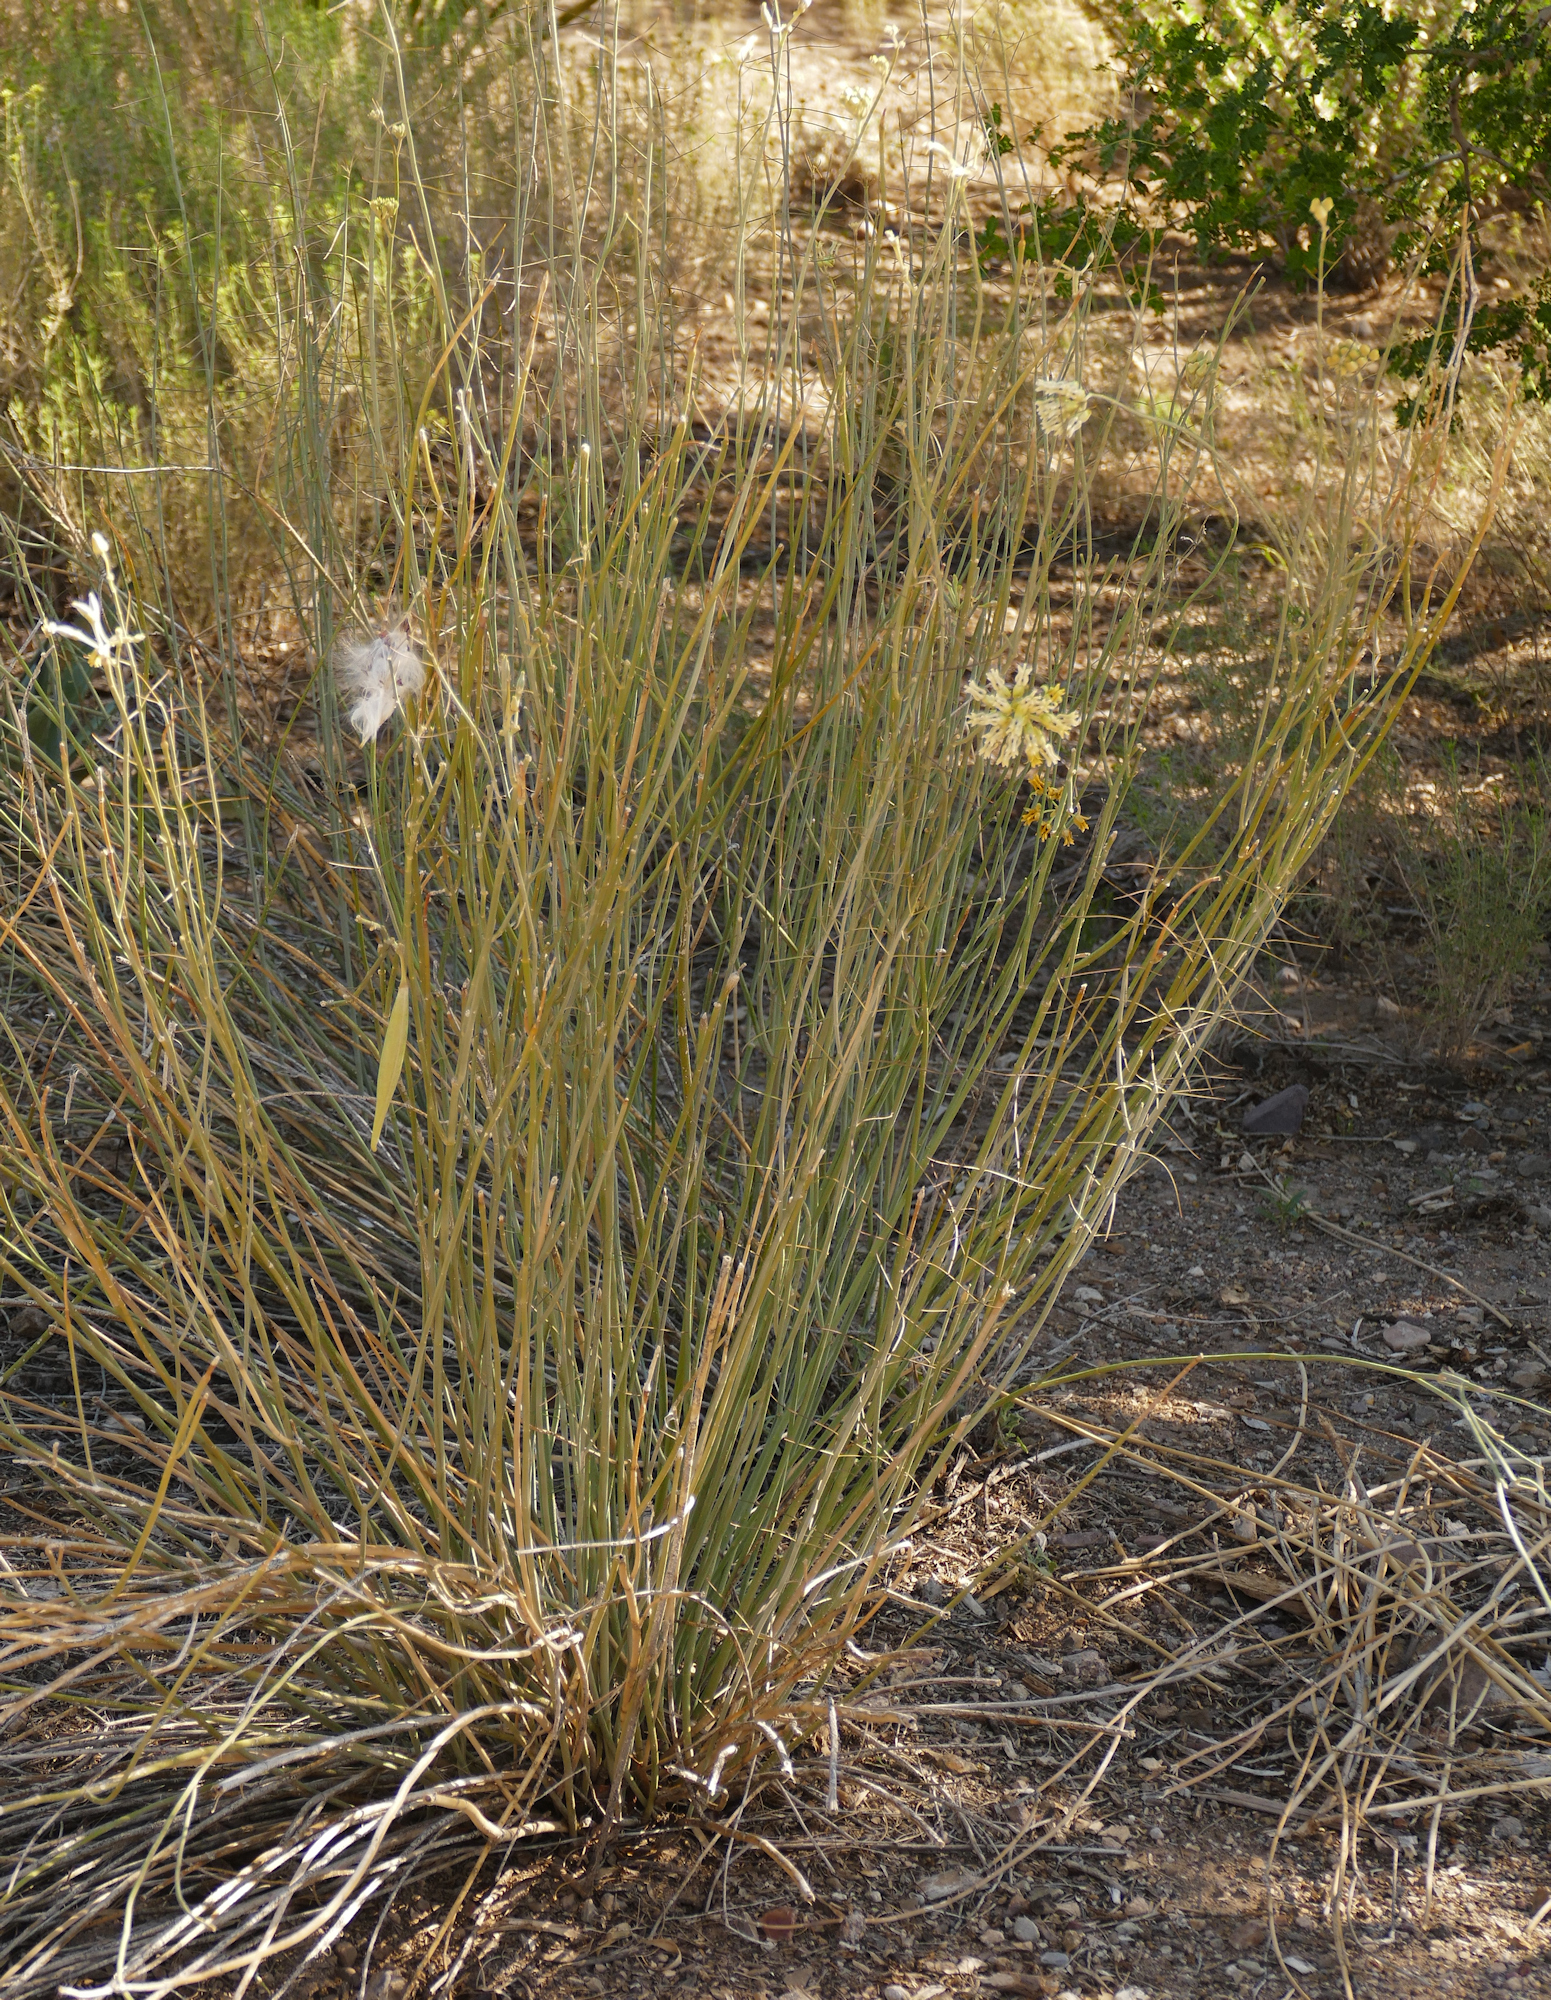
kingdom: Plantae
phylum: Tracheophyta
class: Magnoliopsida
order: Gentianales
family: Apocynaceae
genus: Asclepias
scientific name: Asclepias subulata
